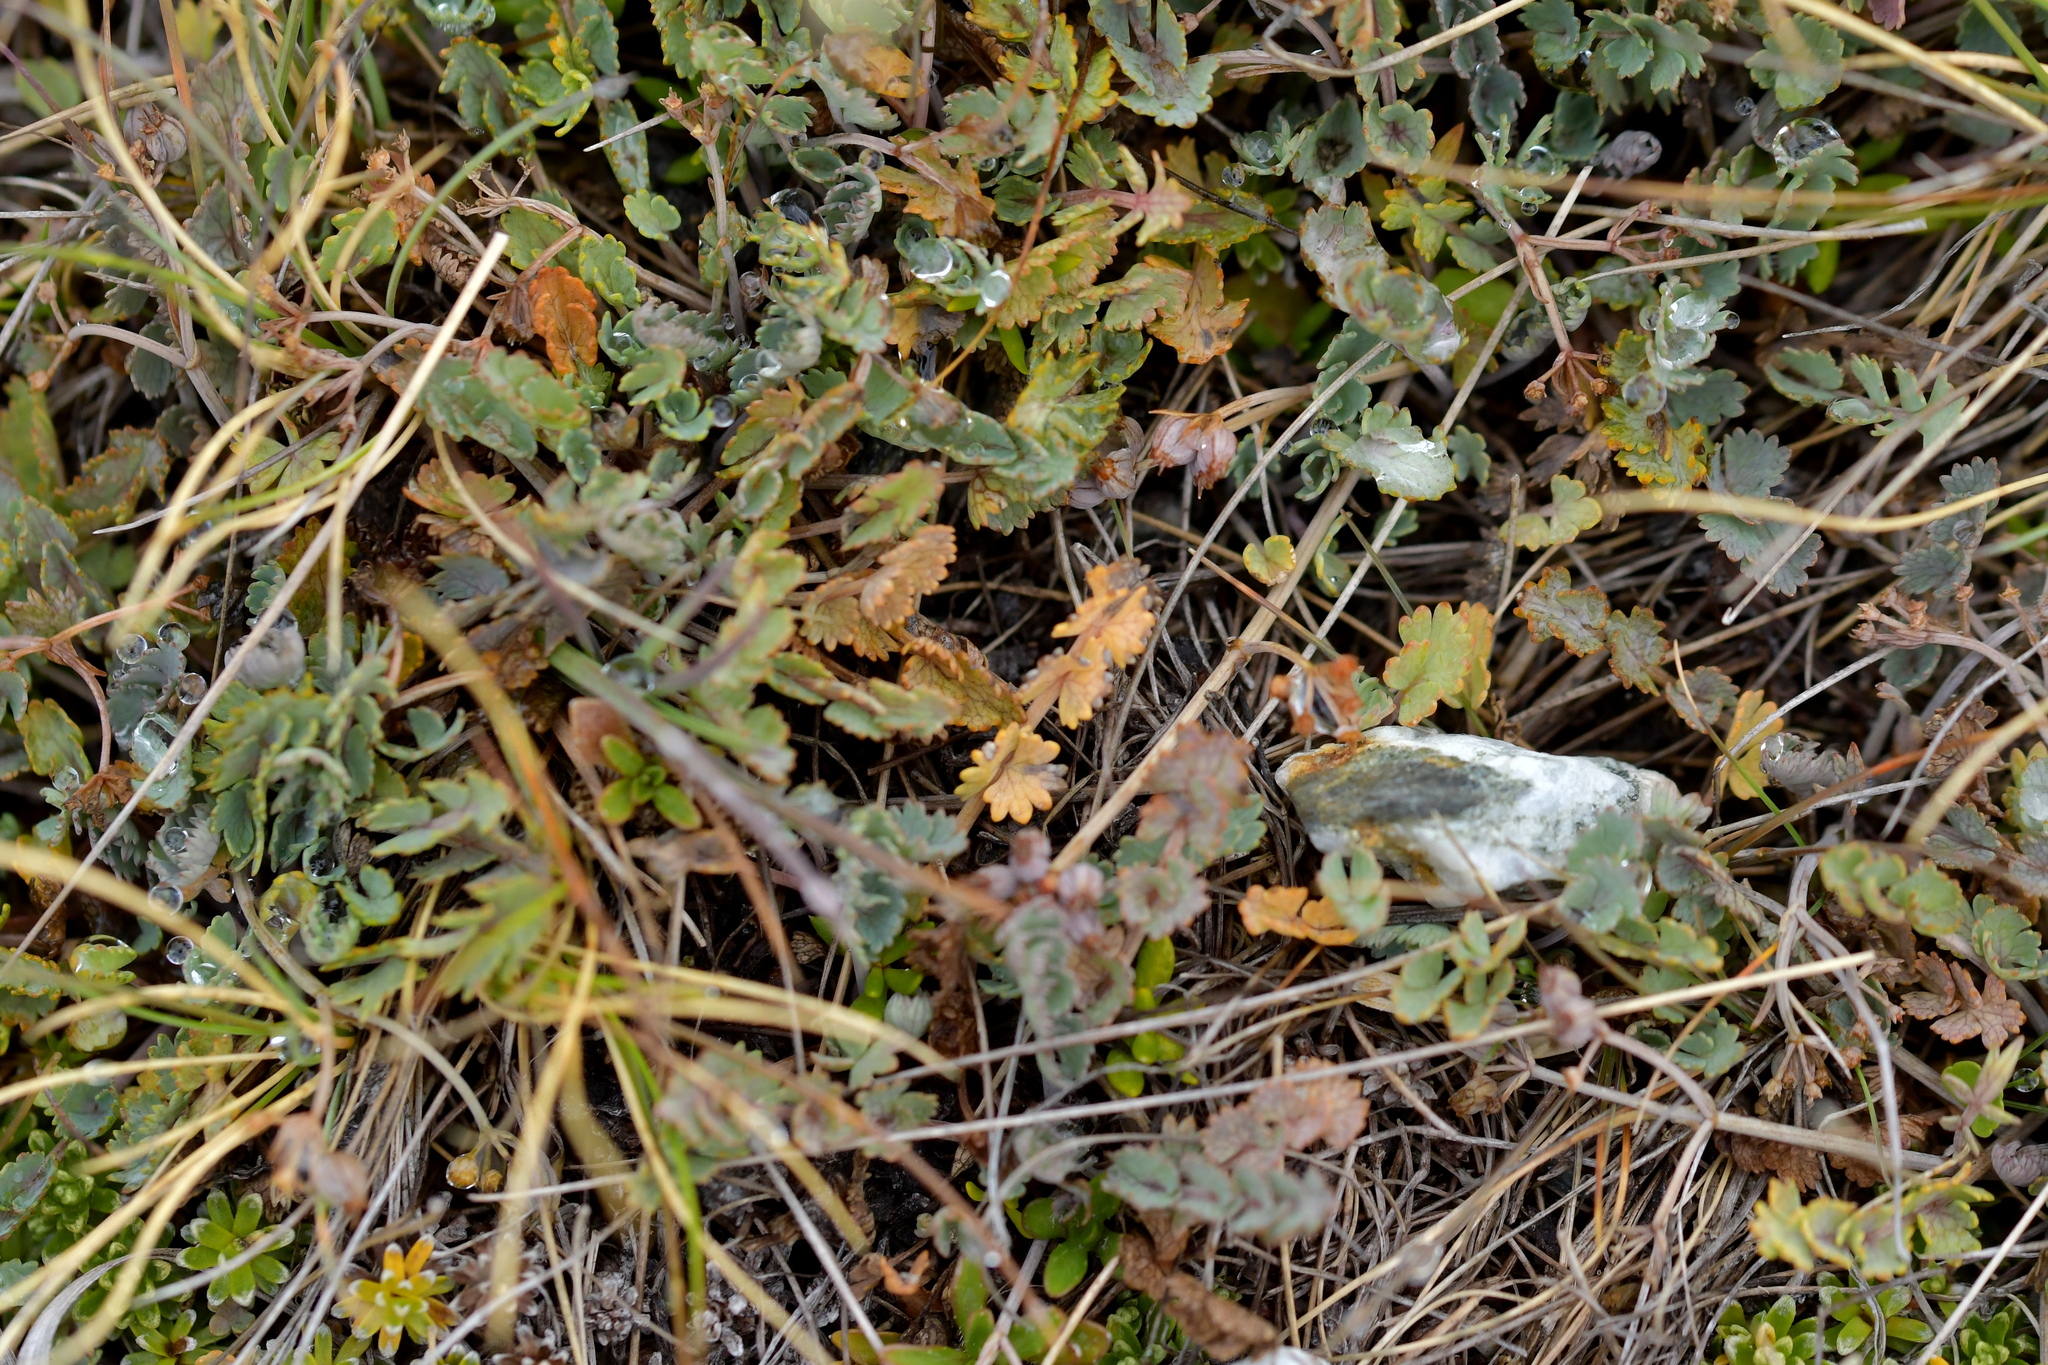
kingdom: Plantae
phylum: Tracheophyta
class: Magnoliopsida
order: Apiales
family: Apiaceae
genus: Gingidia
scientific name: Gingidia baxterae
